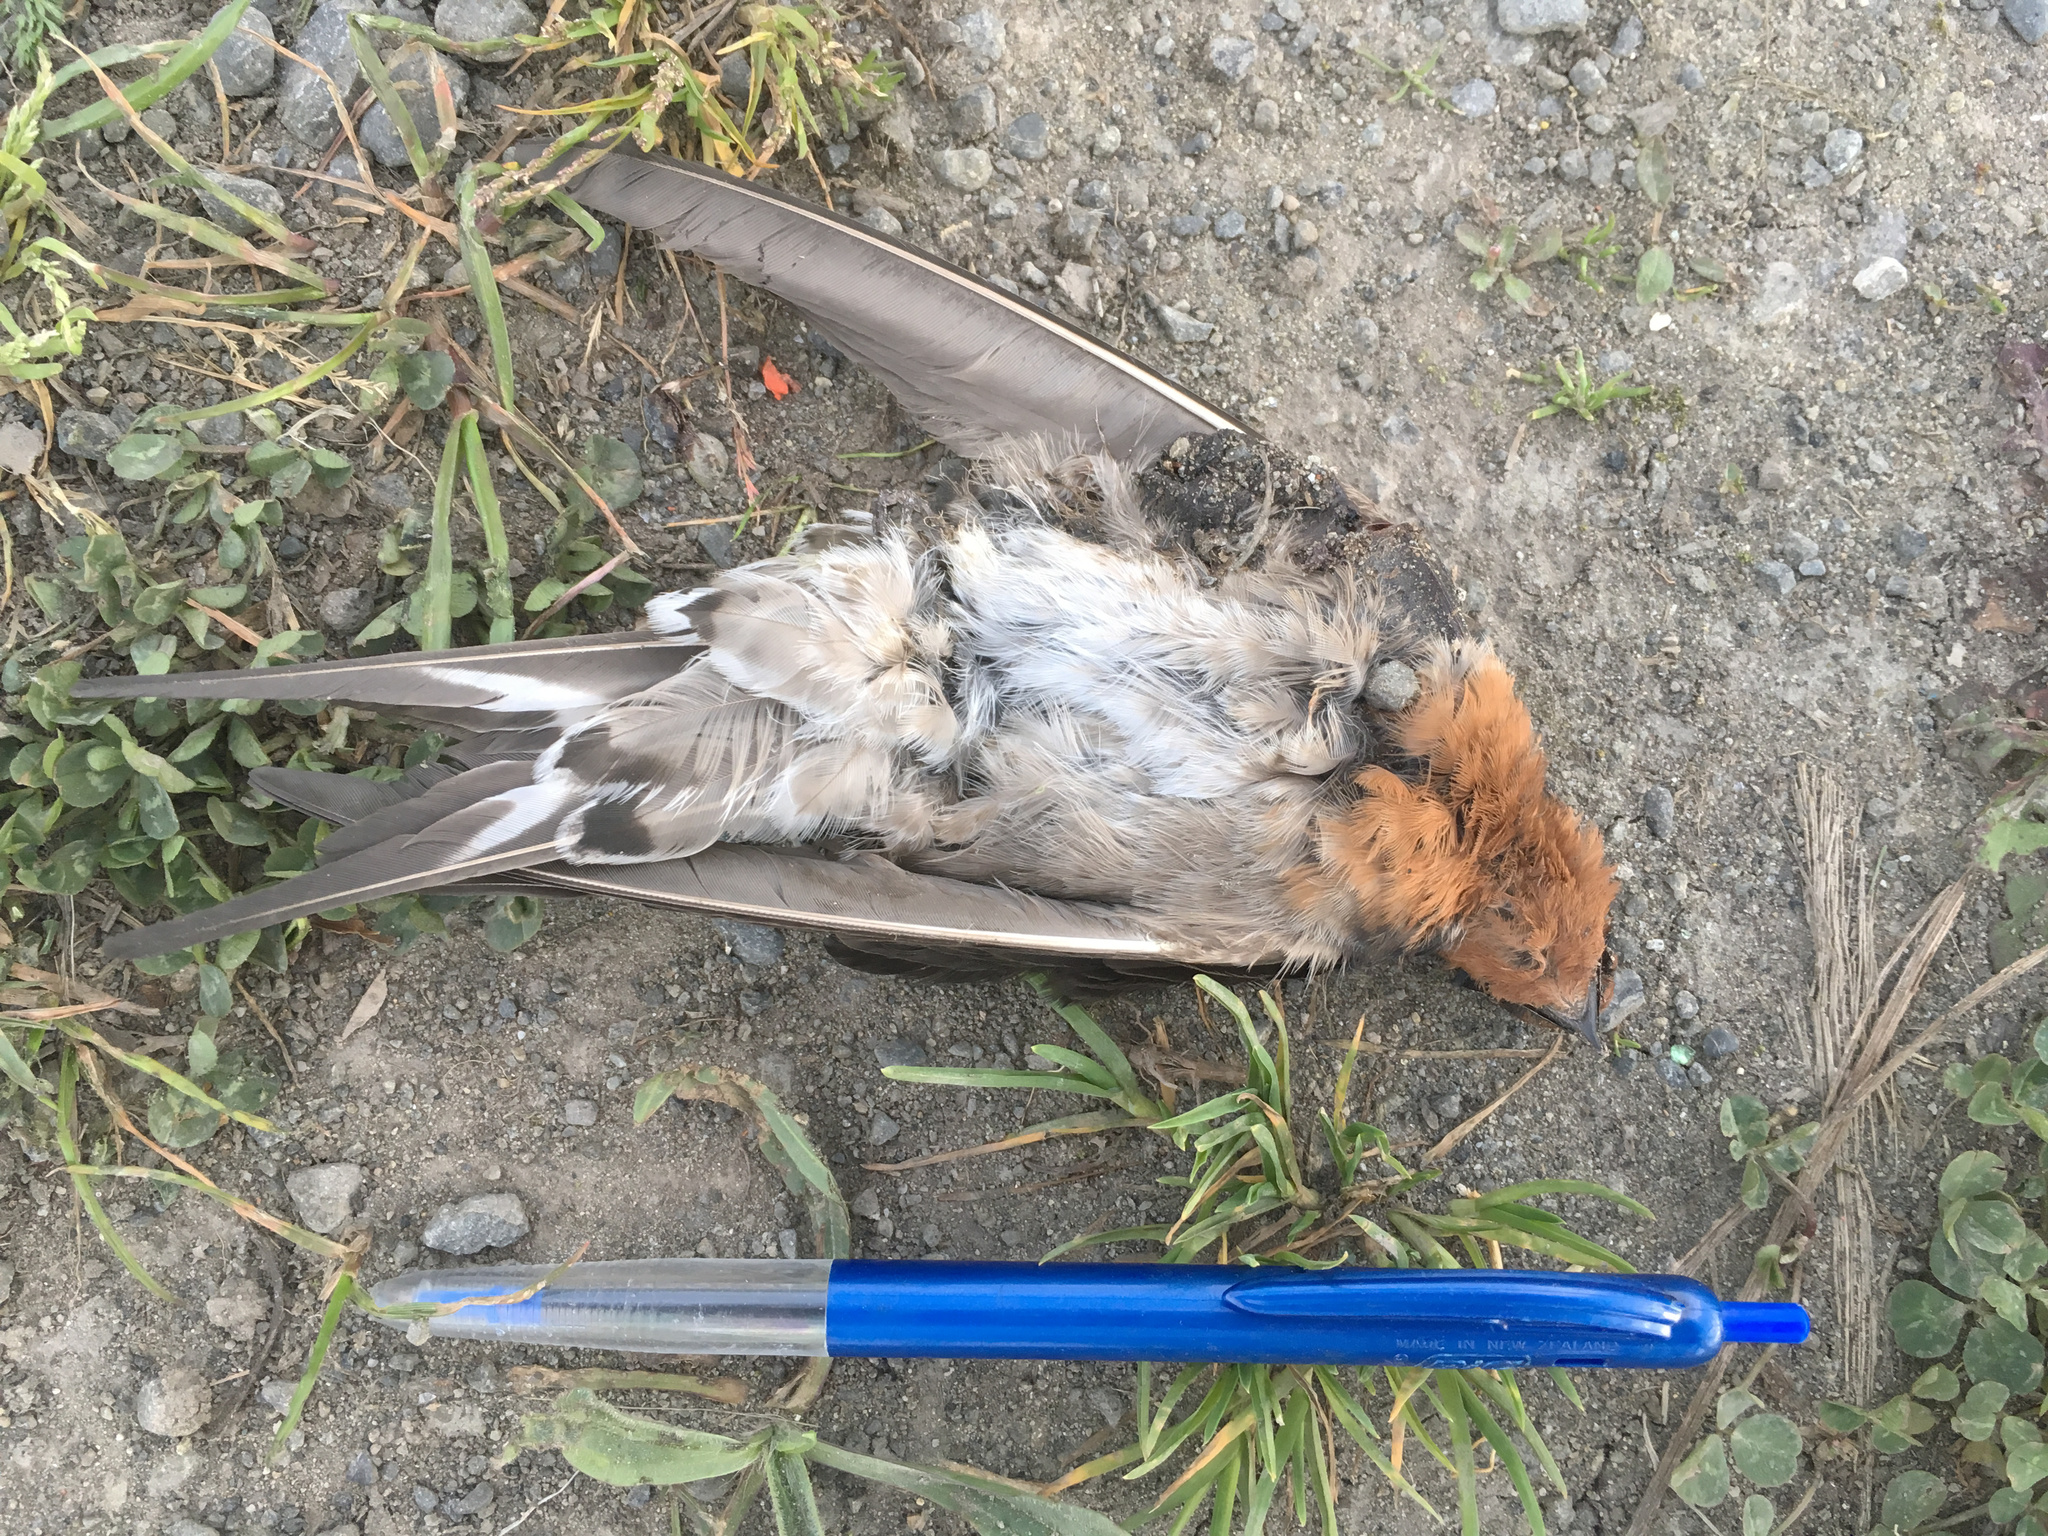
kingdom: Animalia
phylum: Chordata
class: Aves
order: Passeriformes
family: Hirundinidae
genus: Hirundo
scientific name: Hirundo neoxena
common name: Welcome swallow
